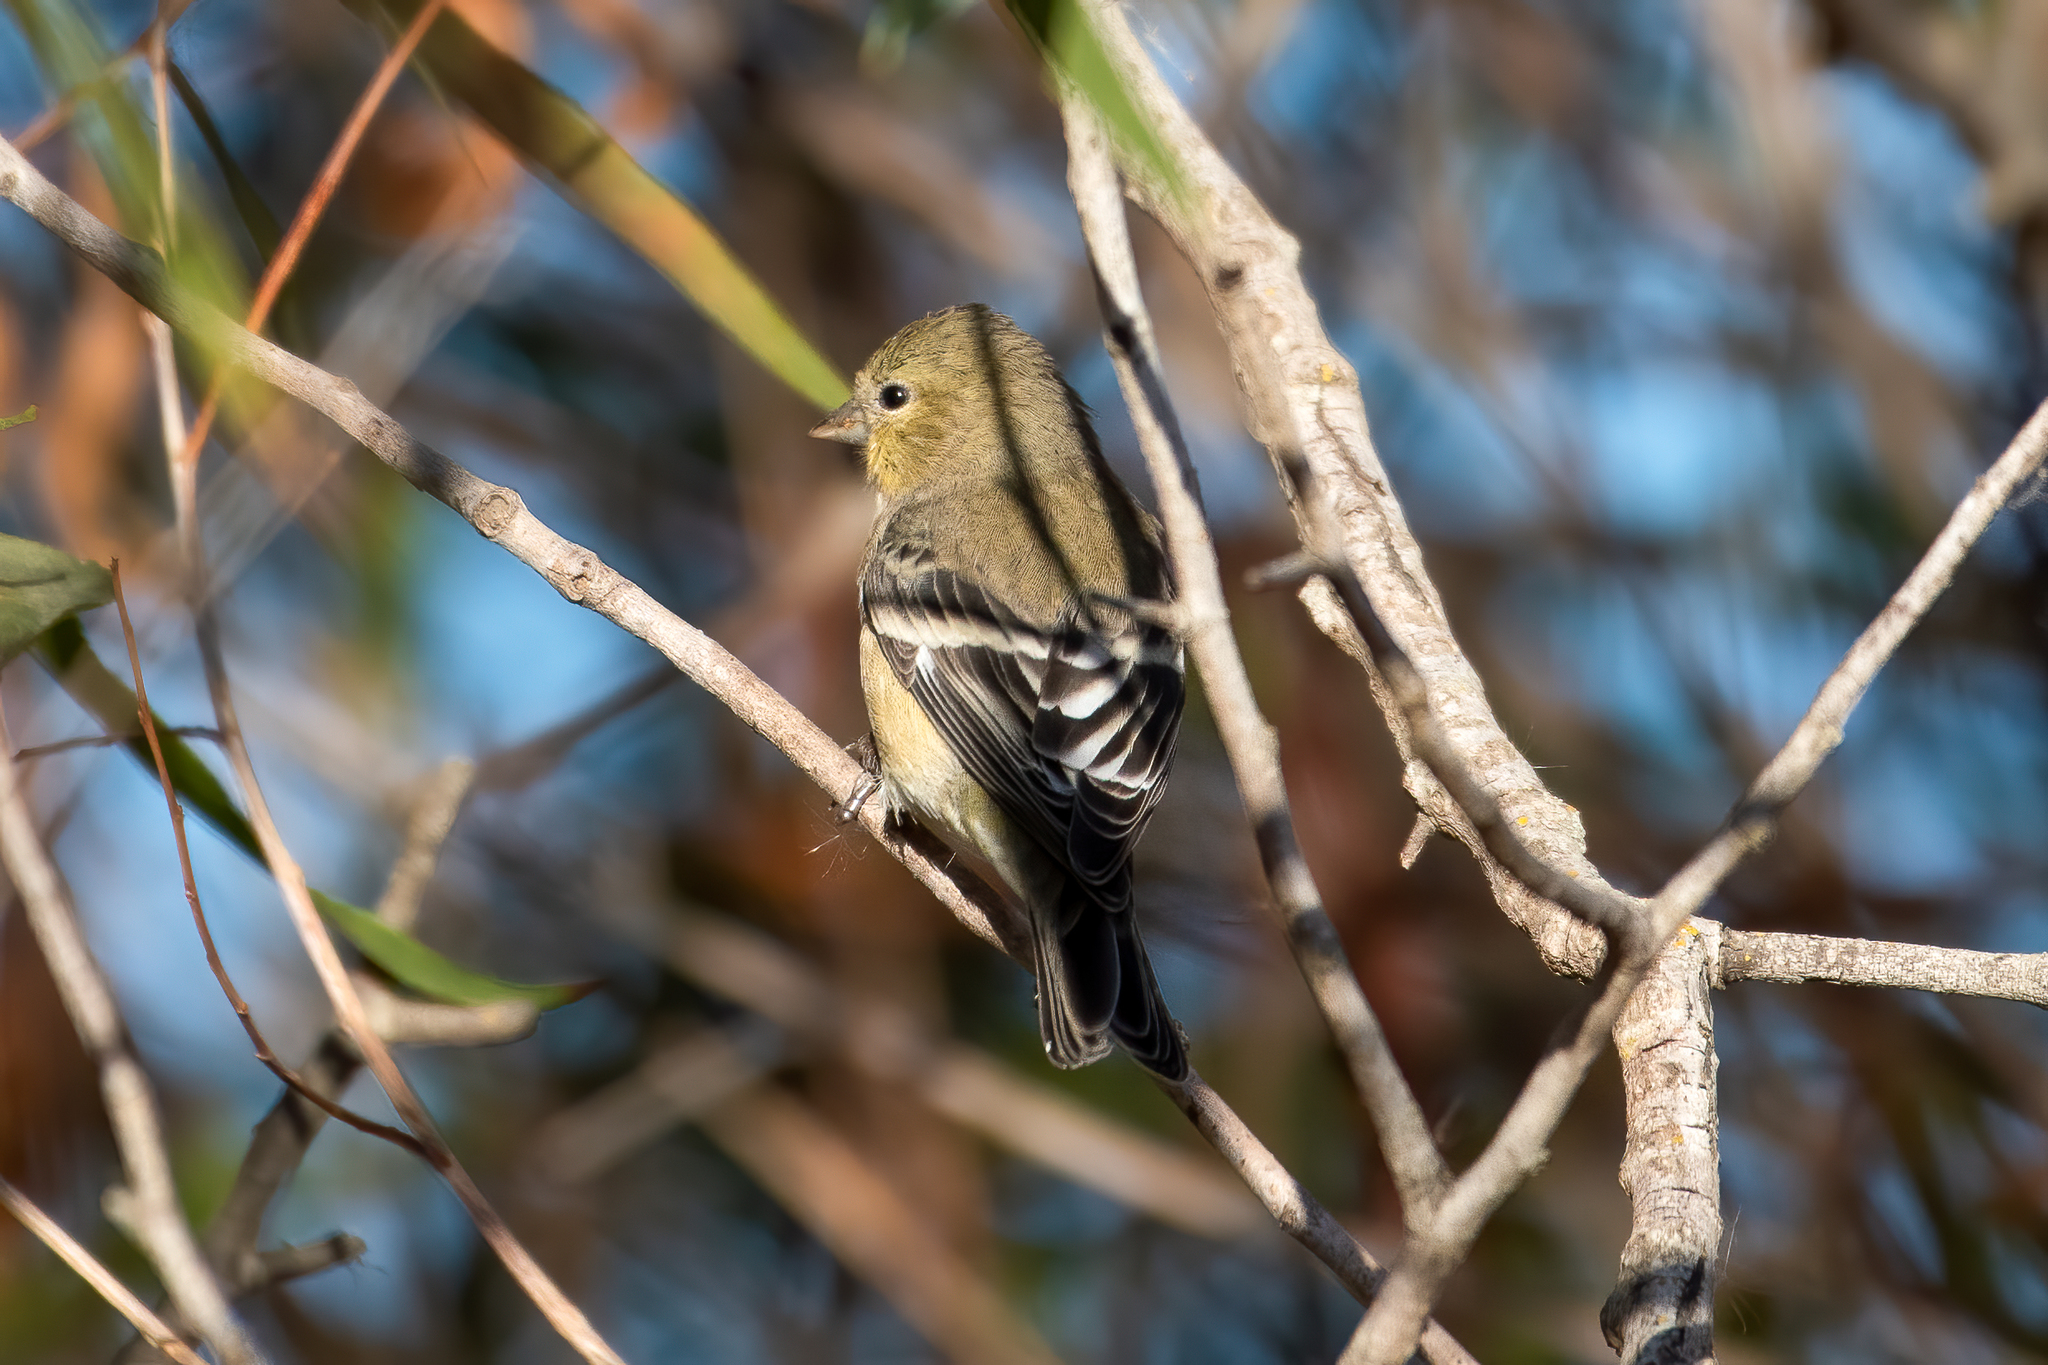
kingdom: Animalia
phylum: Chordata
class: Aves
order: Passeriformes
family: Fringillidae
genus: Spinus
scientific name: Spinus psaltria
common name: Lesser goldfinch
